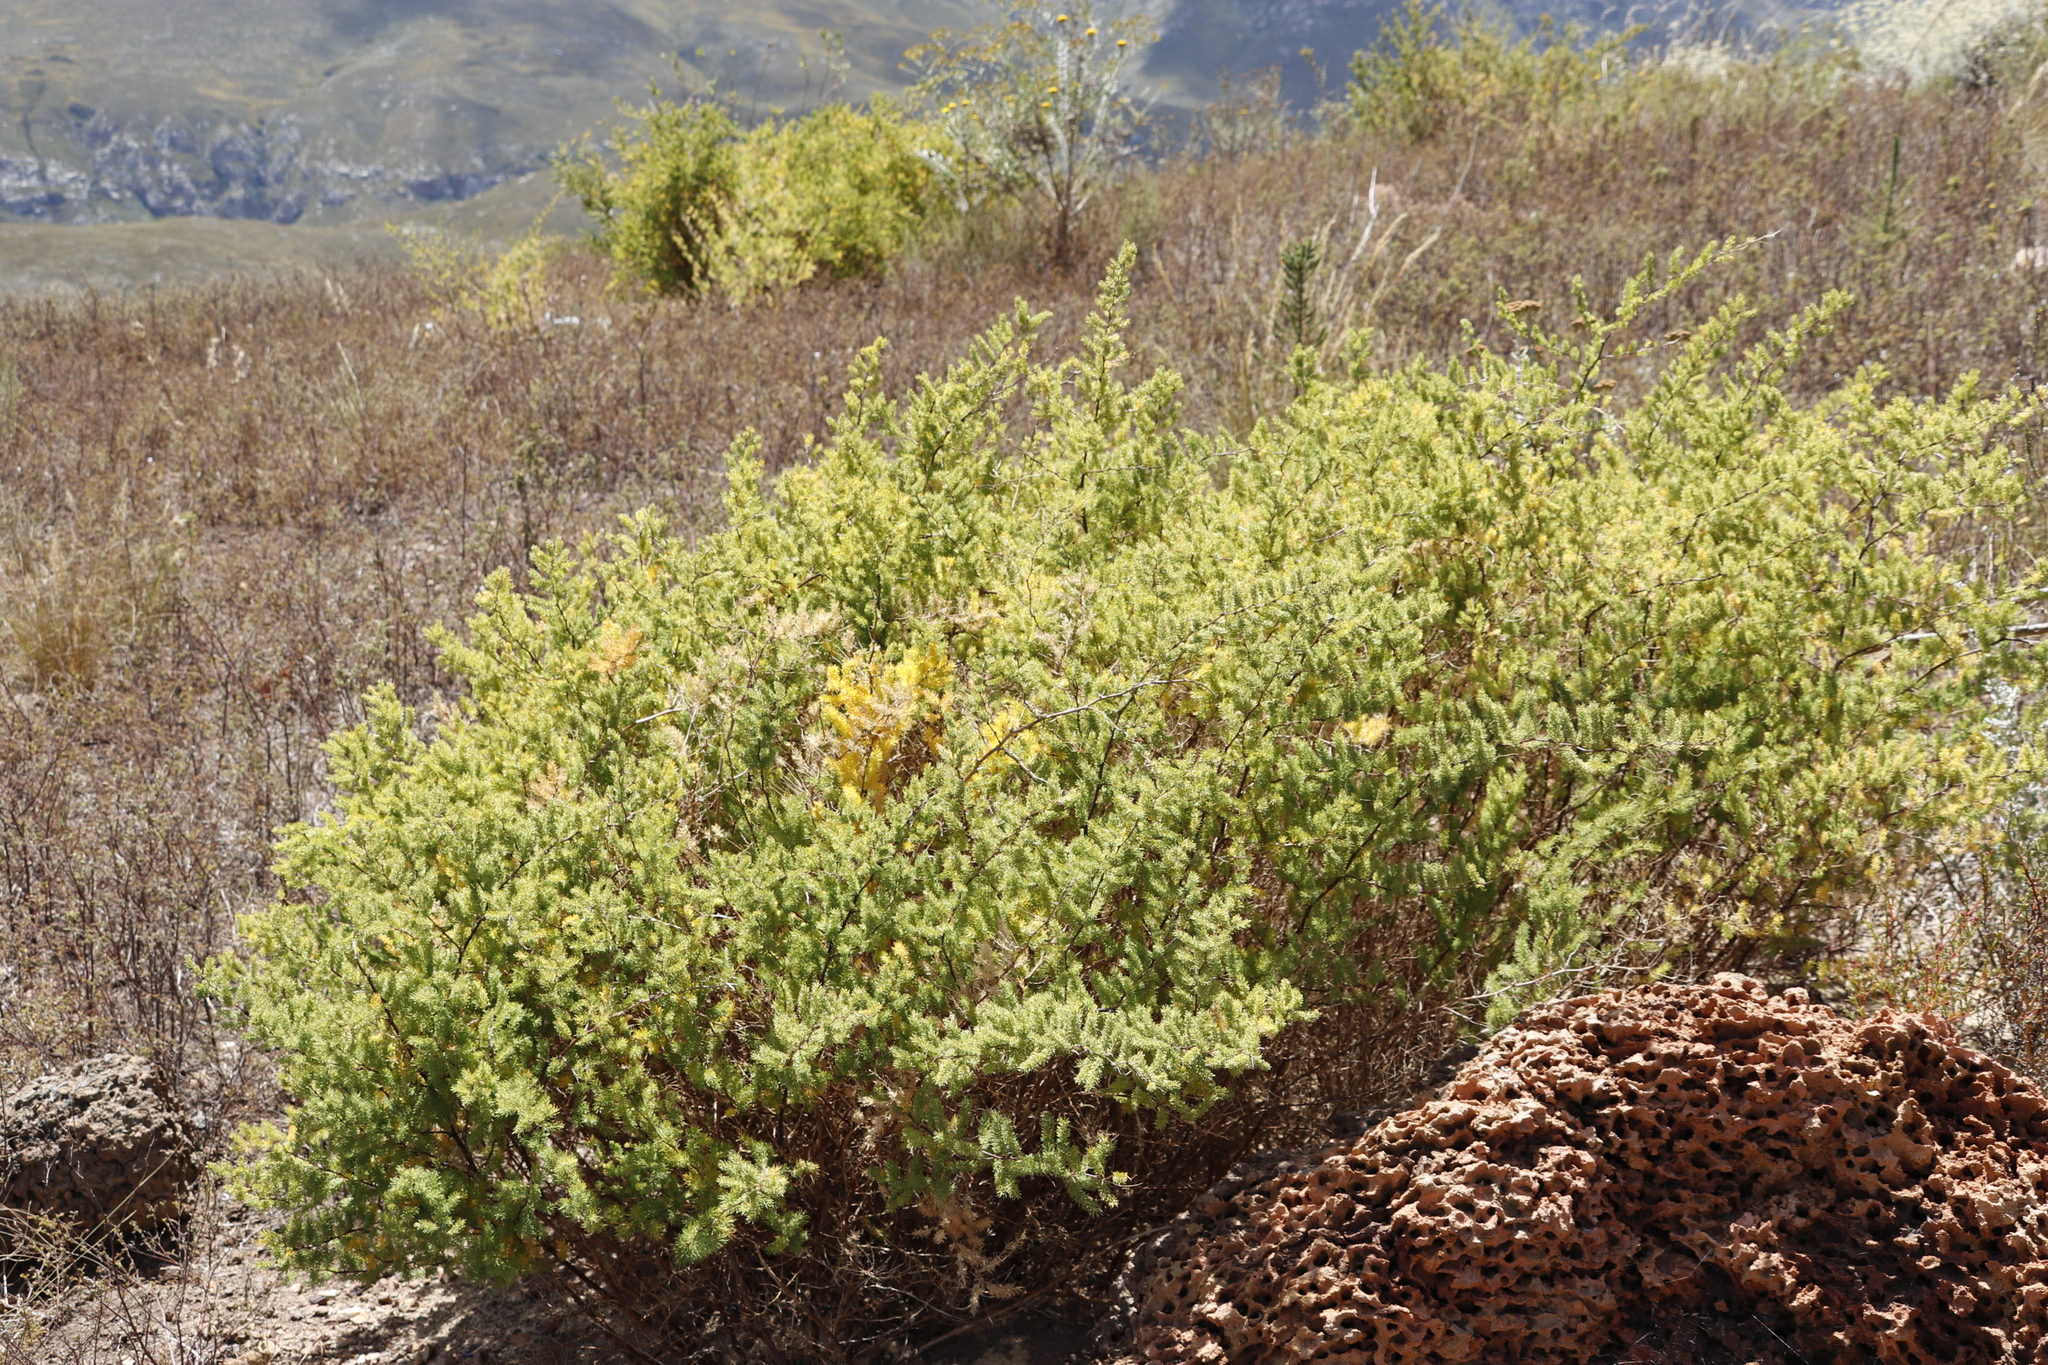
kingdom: Plantae
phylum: Tracheophyta
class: Liliopsida
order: Asparagales
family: Asparagaceae
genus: Asparagus
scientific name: Asparagus rubicundus
